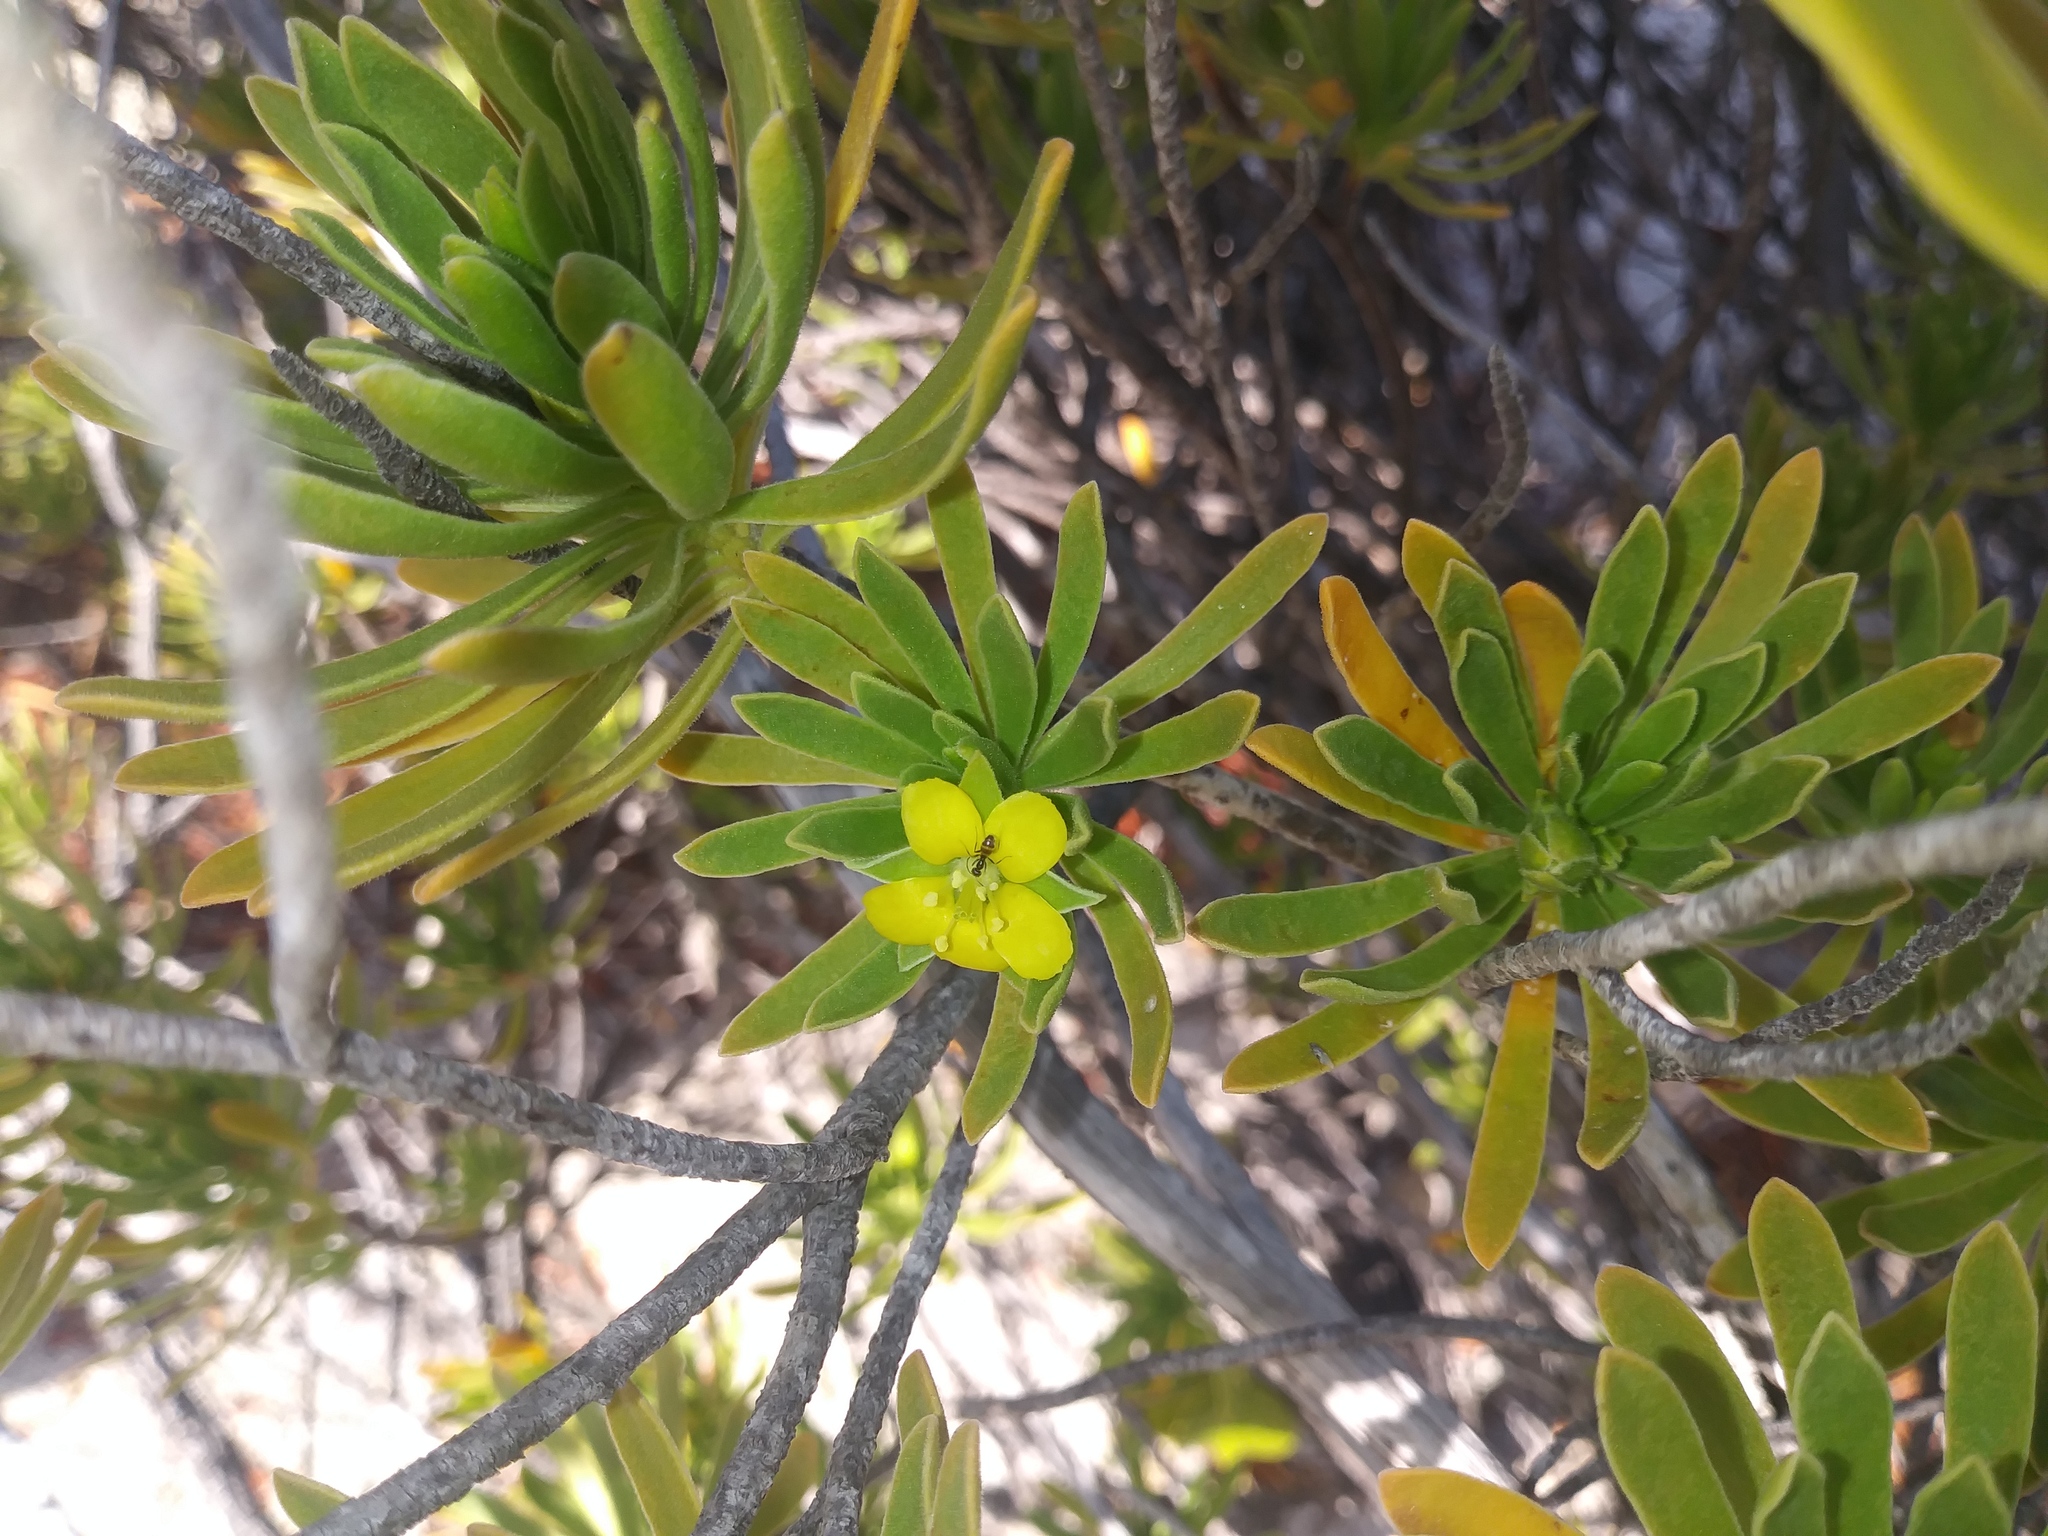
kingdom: Plantae
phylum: Tracheophyta
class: Magnoliopsida
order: Fabales
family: Surianaceae
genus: Suriana
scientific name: Suriana maritima
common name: Bay-cedar
